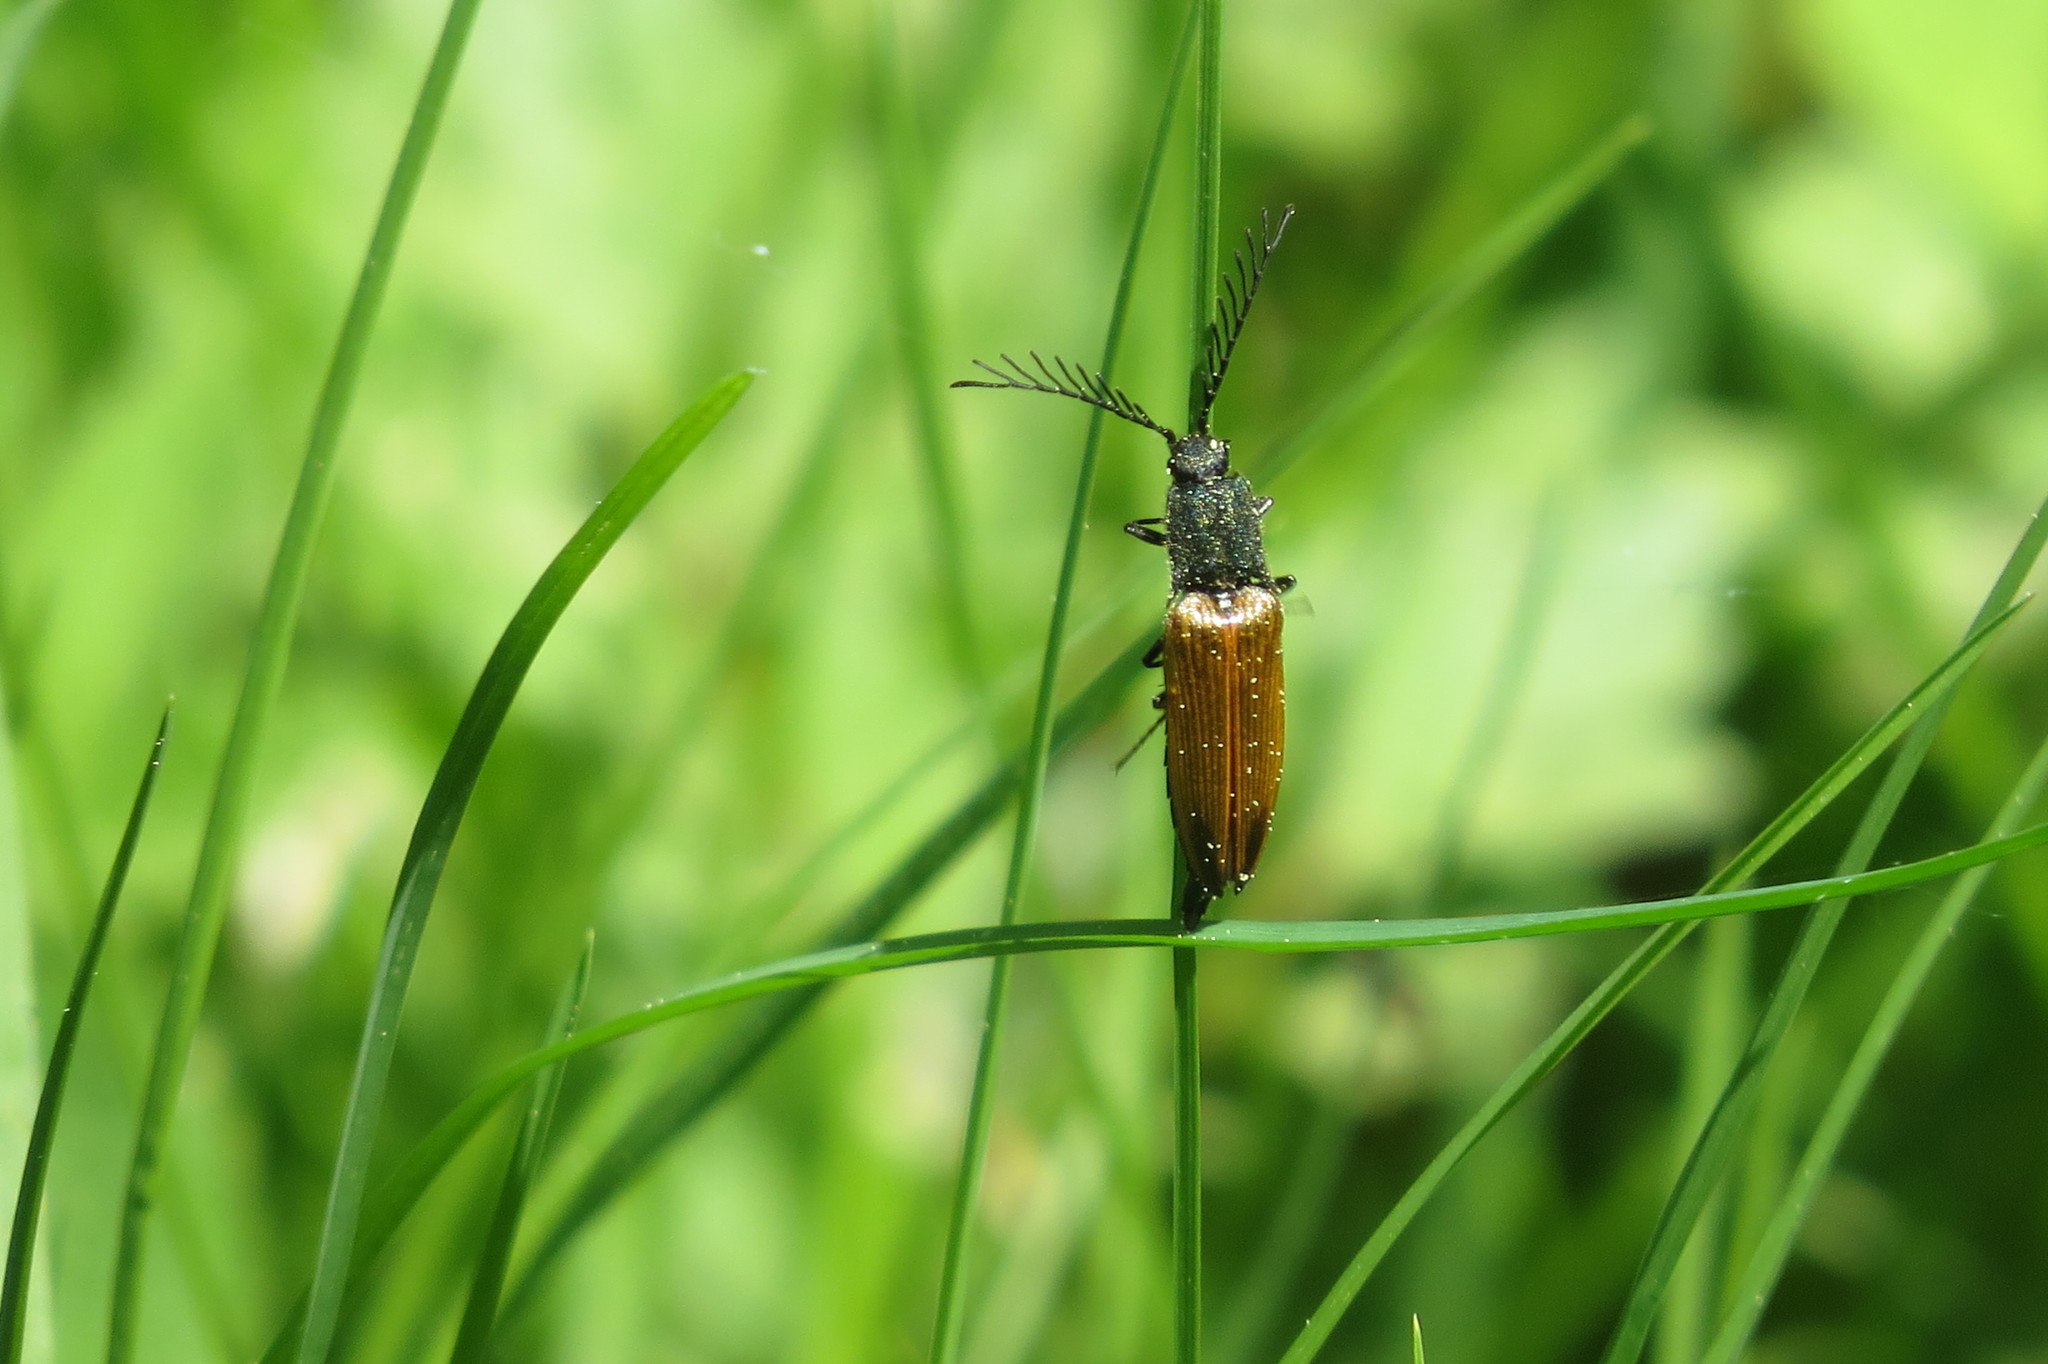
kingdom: Animalia
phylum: Arthropoda
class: Insecta
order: Coleoptera
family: Elateridae
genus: Ctenicera
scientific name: Ctenicera virens
